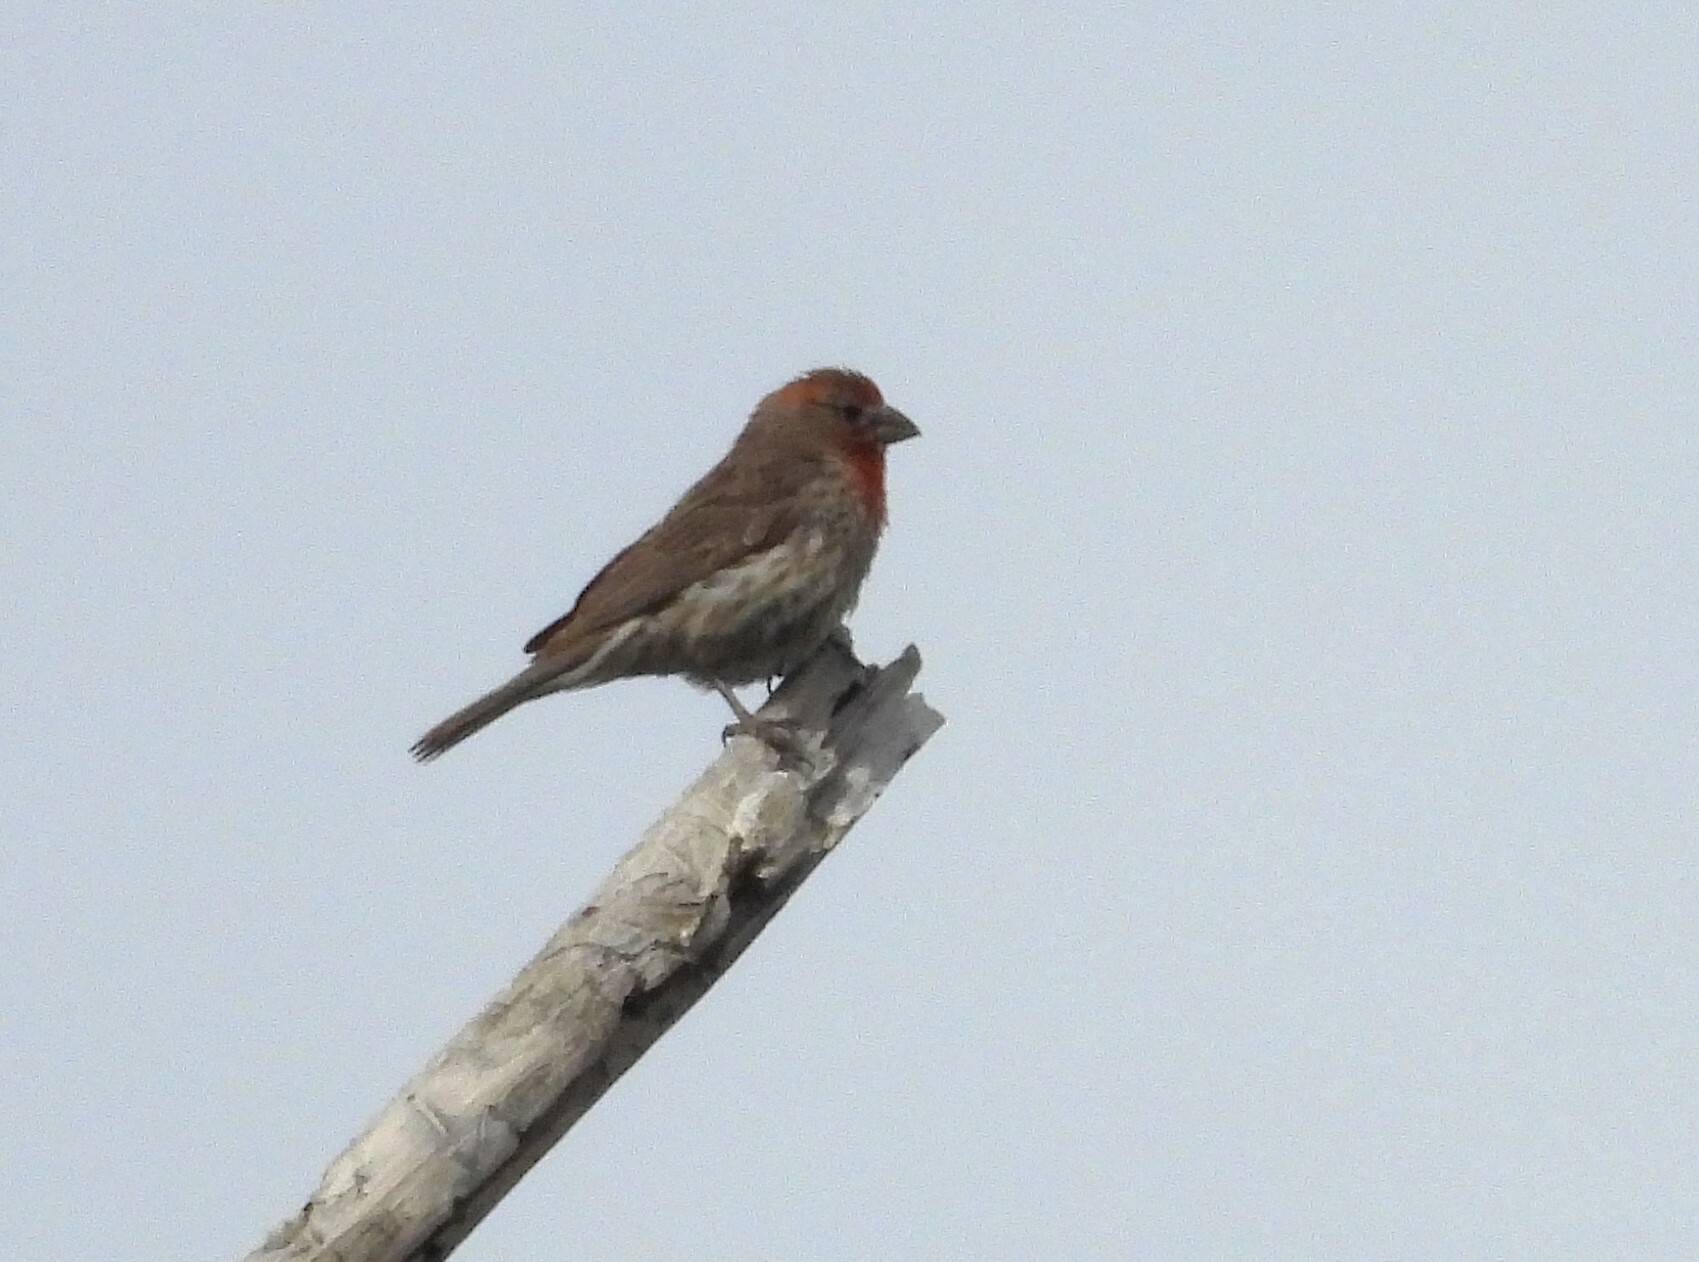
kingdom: Animalia
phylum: Chordata
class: Aves
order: Passeriformes
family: Fringillidae
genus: Haemorhous
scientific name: Haemorhous mexicanus
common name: House finch
